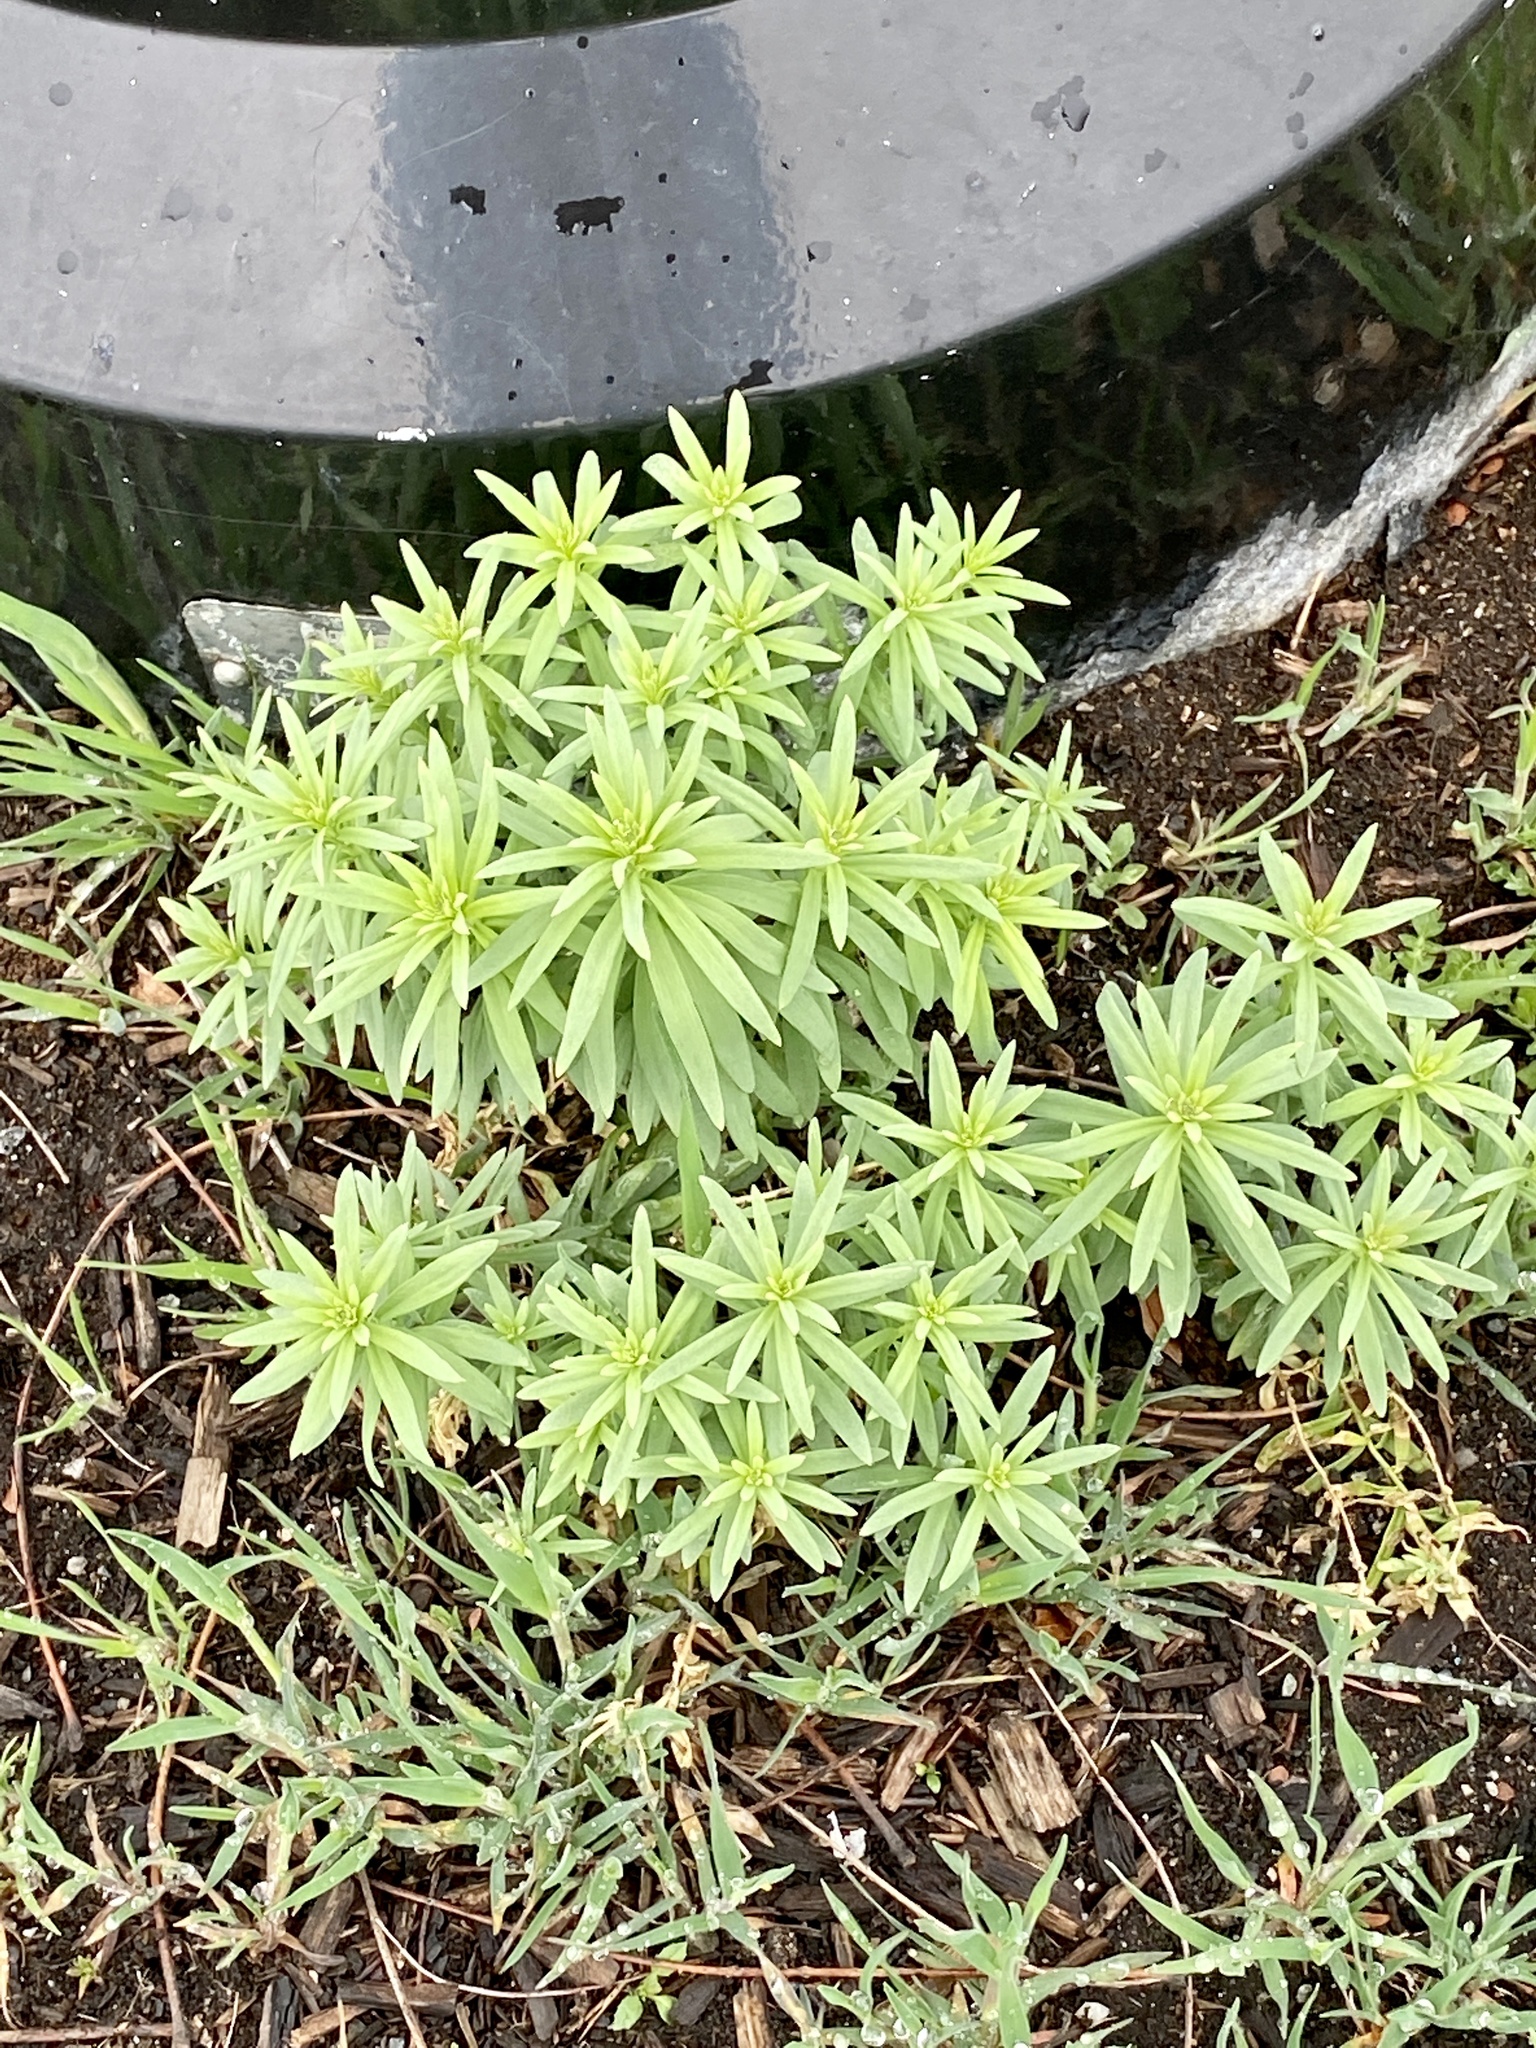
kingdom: Plantae
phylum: Tracheophyta
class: Magnoliopsida
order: Lamiales
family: Plantaginaceae
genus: Linaria
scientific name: Linaria vulgaris
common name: Butter and eggs
